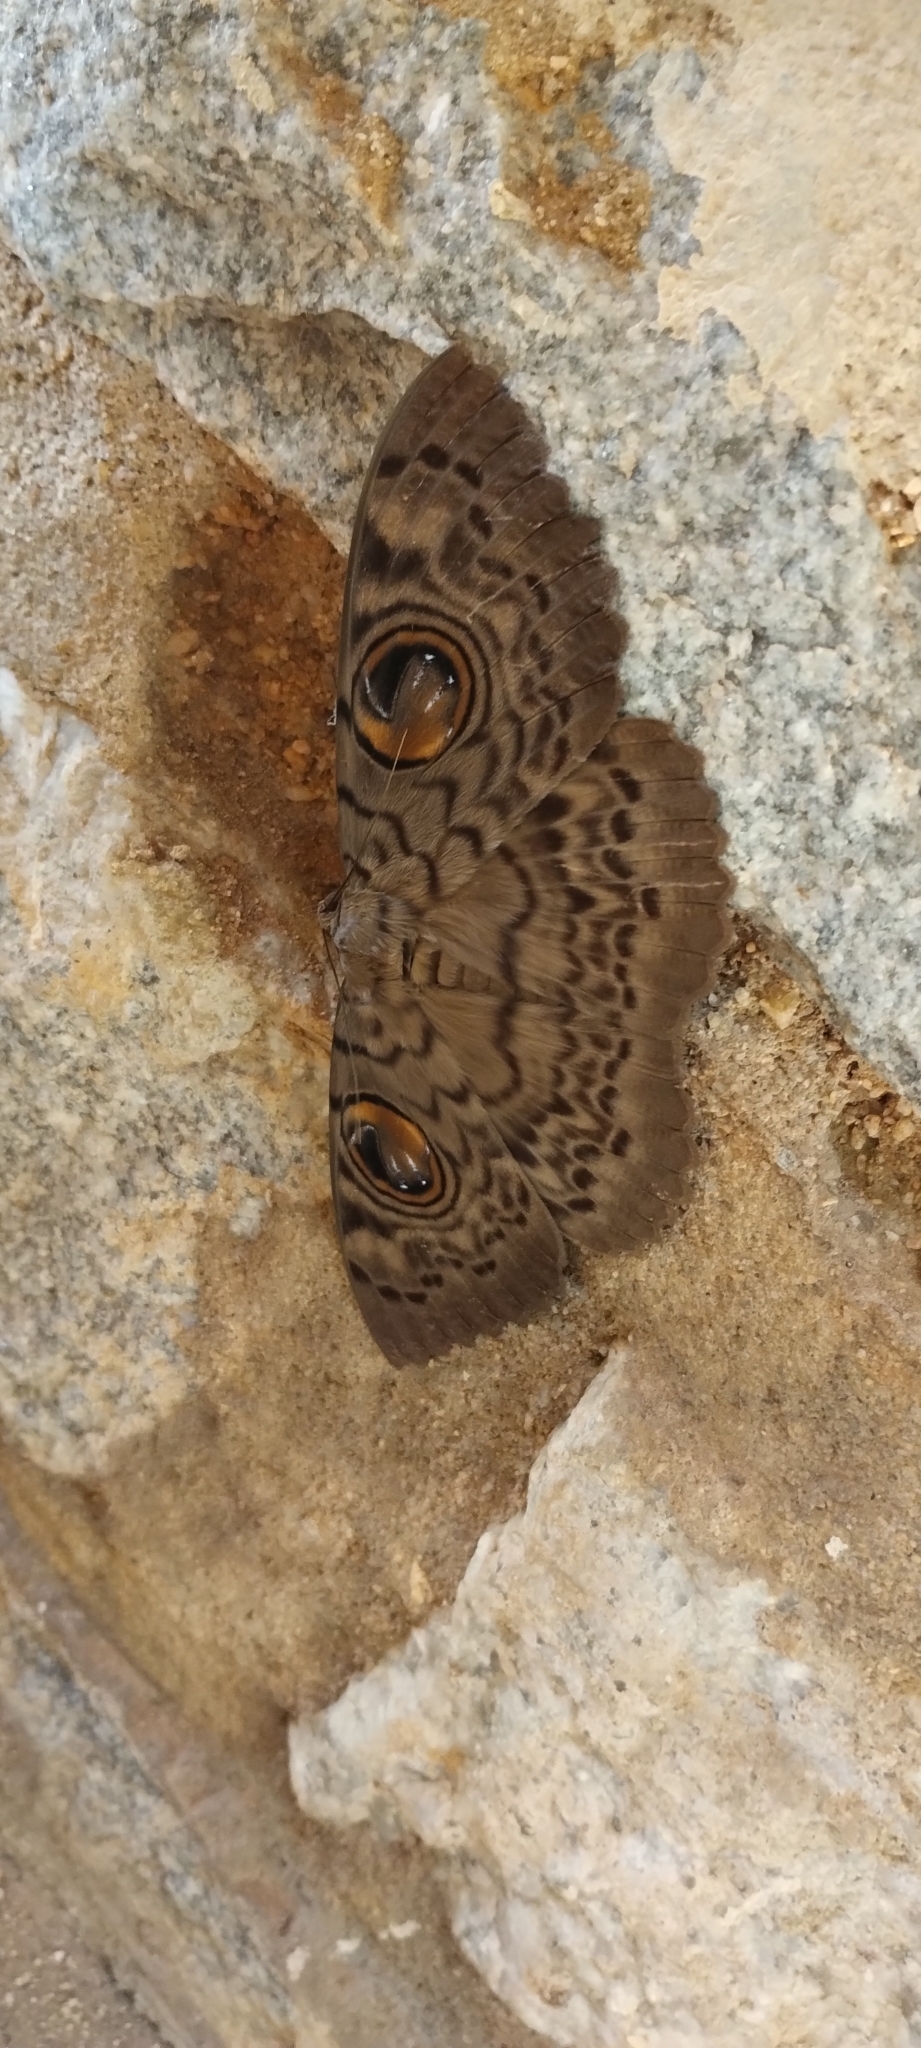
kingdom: Animalia
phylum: Arthropoda
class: Insecta
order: Lepidoptera
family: Erebidae
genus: Erebus
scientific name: Erebus macrops
